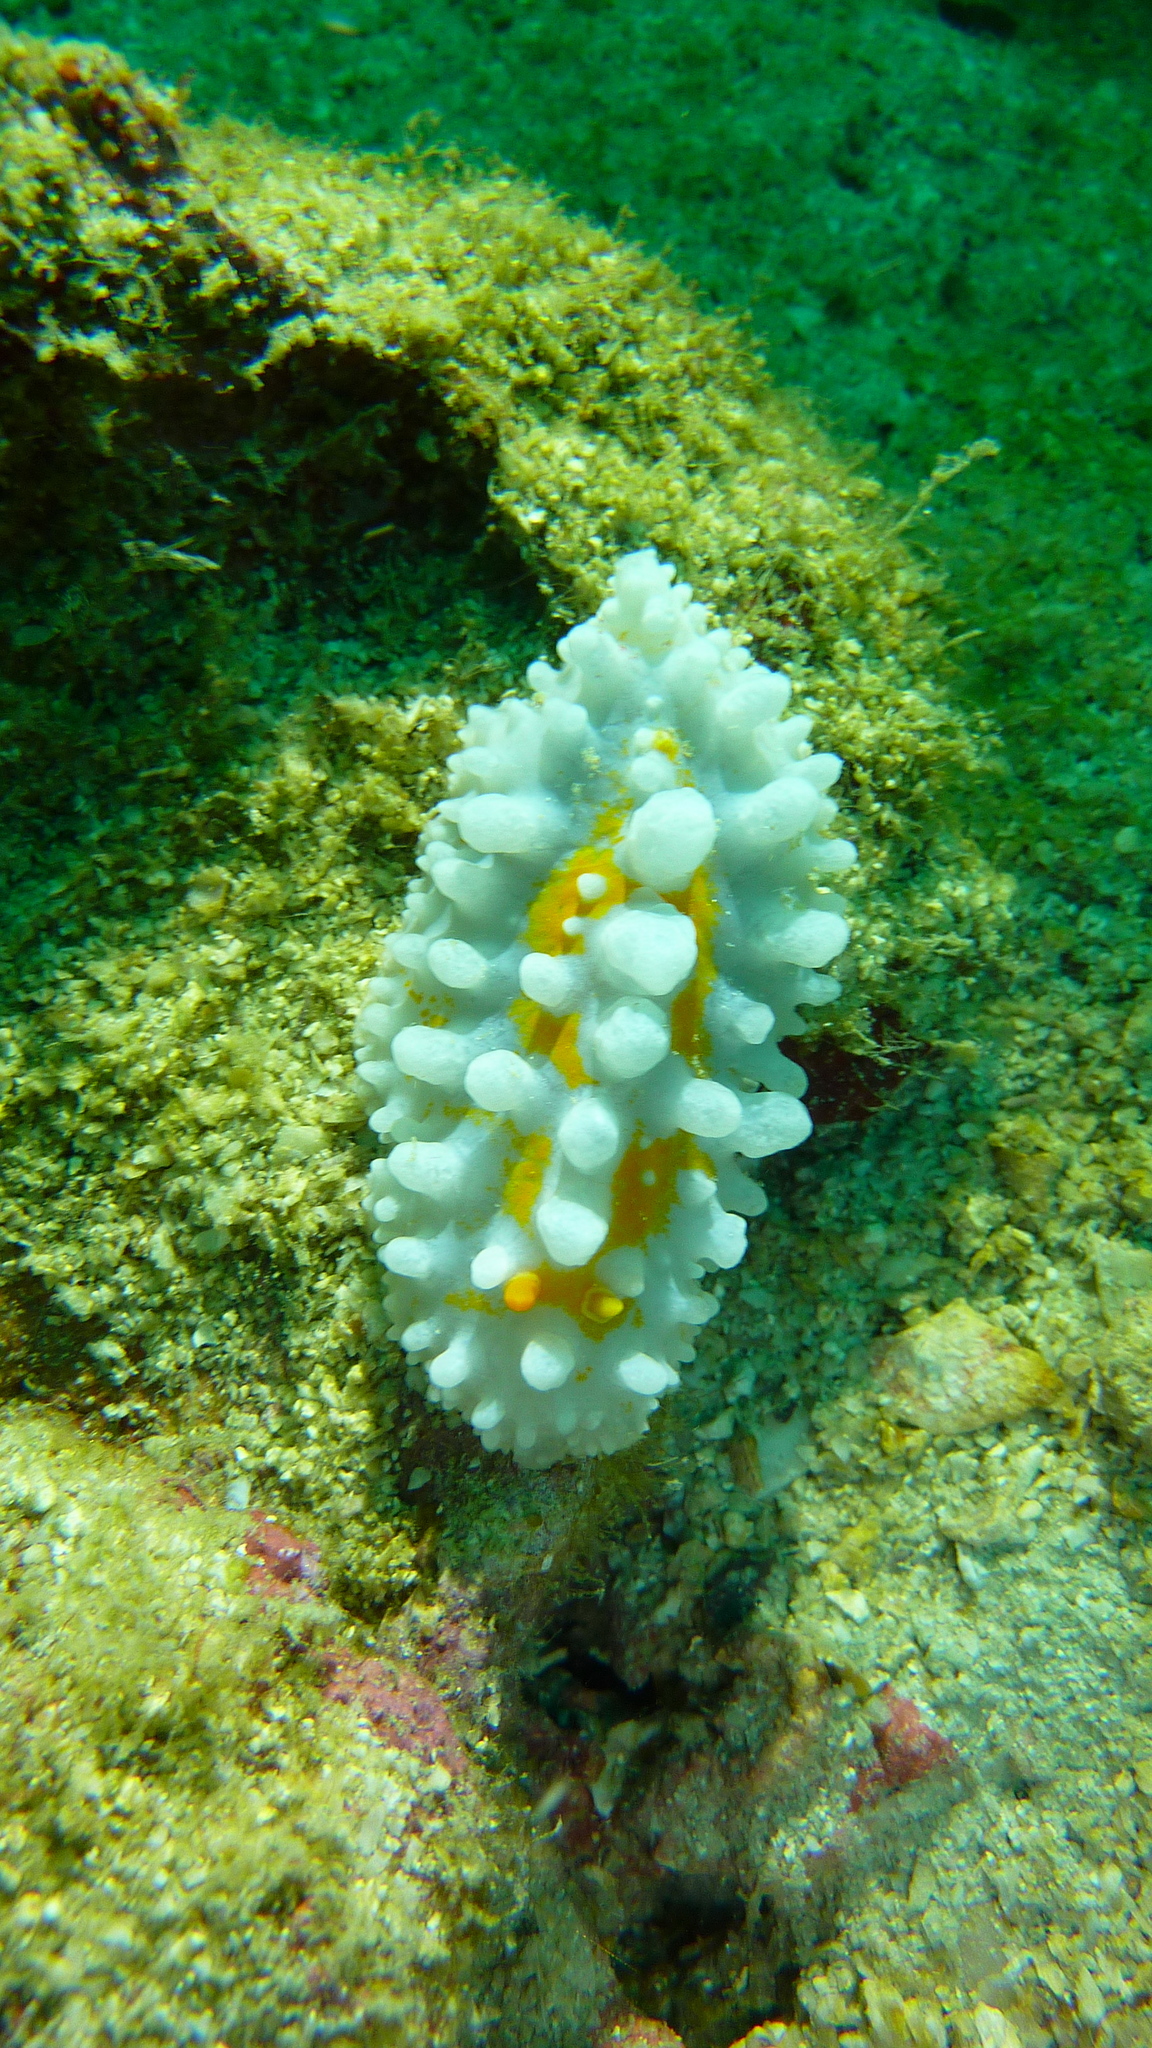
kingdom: Animalia
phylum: Mollusca
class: Gastropoda
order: Nudibranchia
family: Phyllidiidae
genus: Phyllidia
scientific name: Phyllidia ocellata
